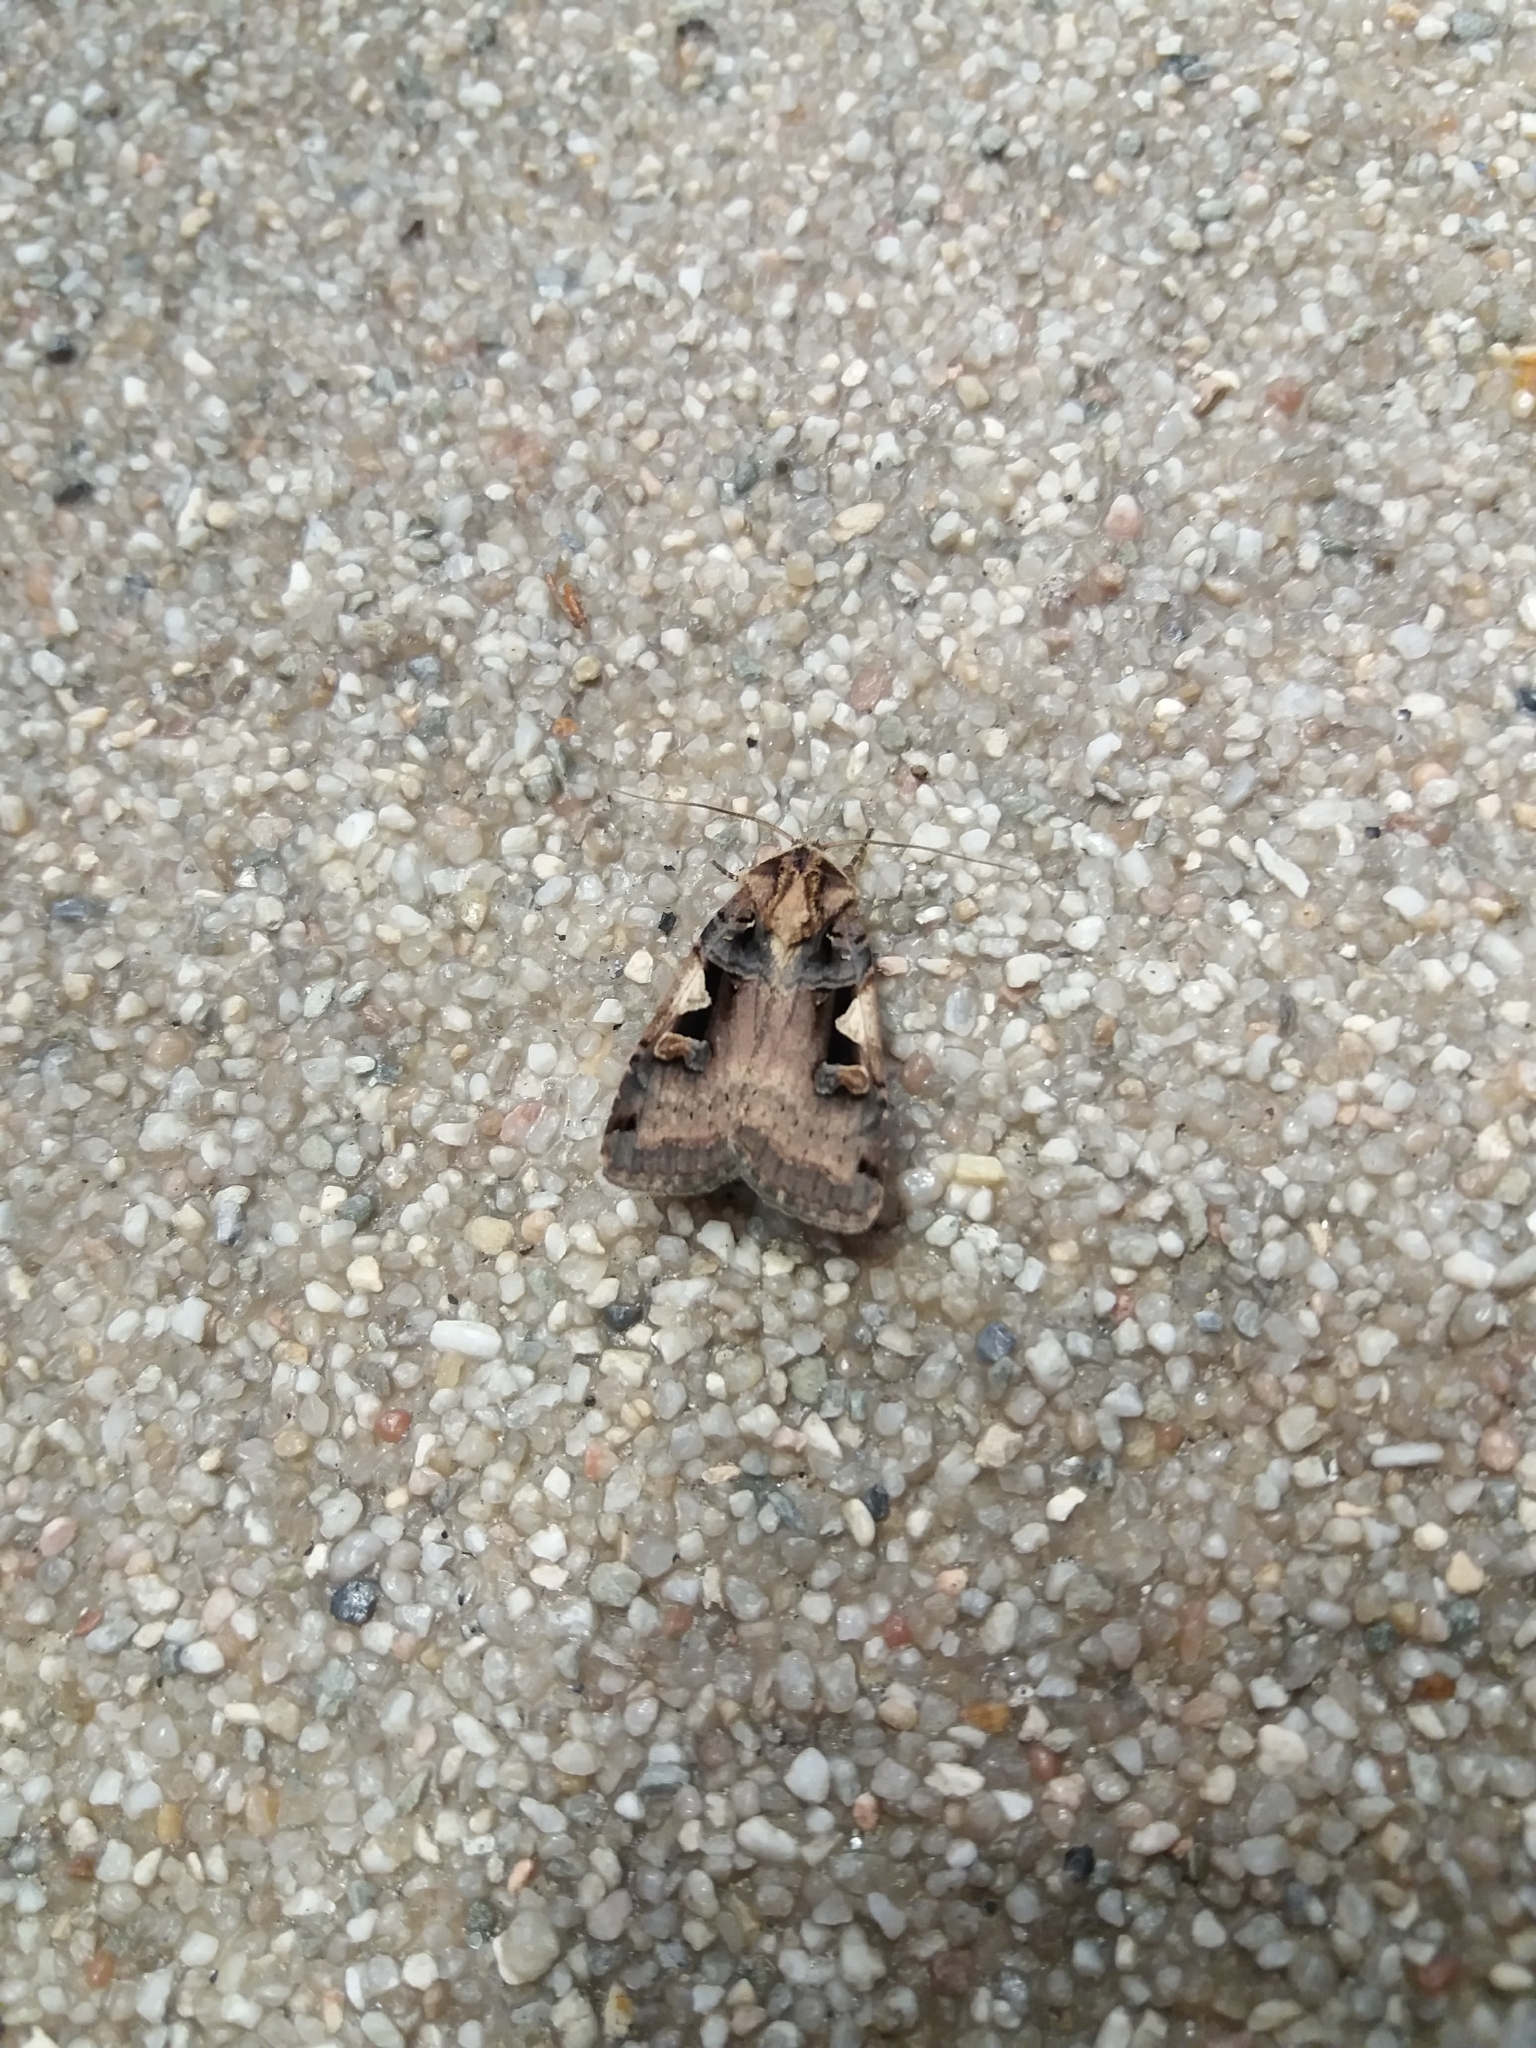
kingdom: Animalia
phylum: Arthropoda
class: Insecta
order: Lepidoptera
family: Noctuidae
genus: Xestia
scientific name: Xestia c-nigrum
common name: Setaceous hebrew character
